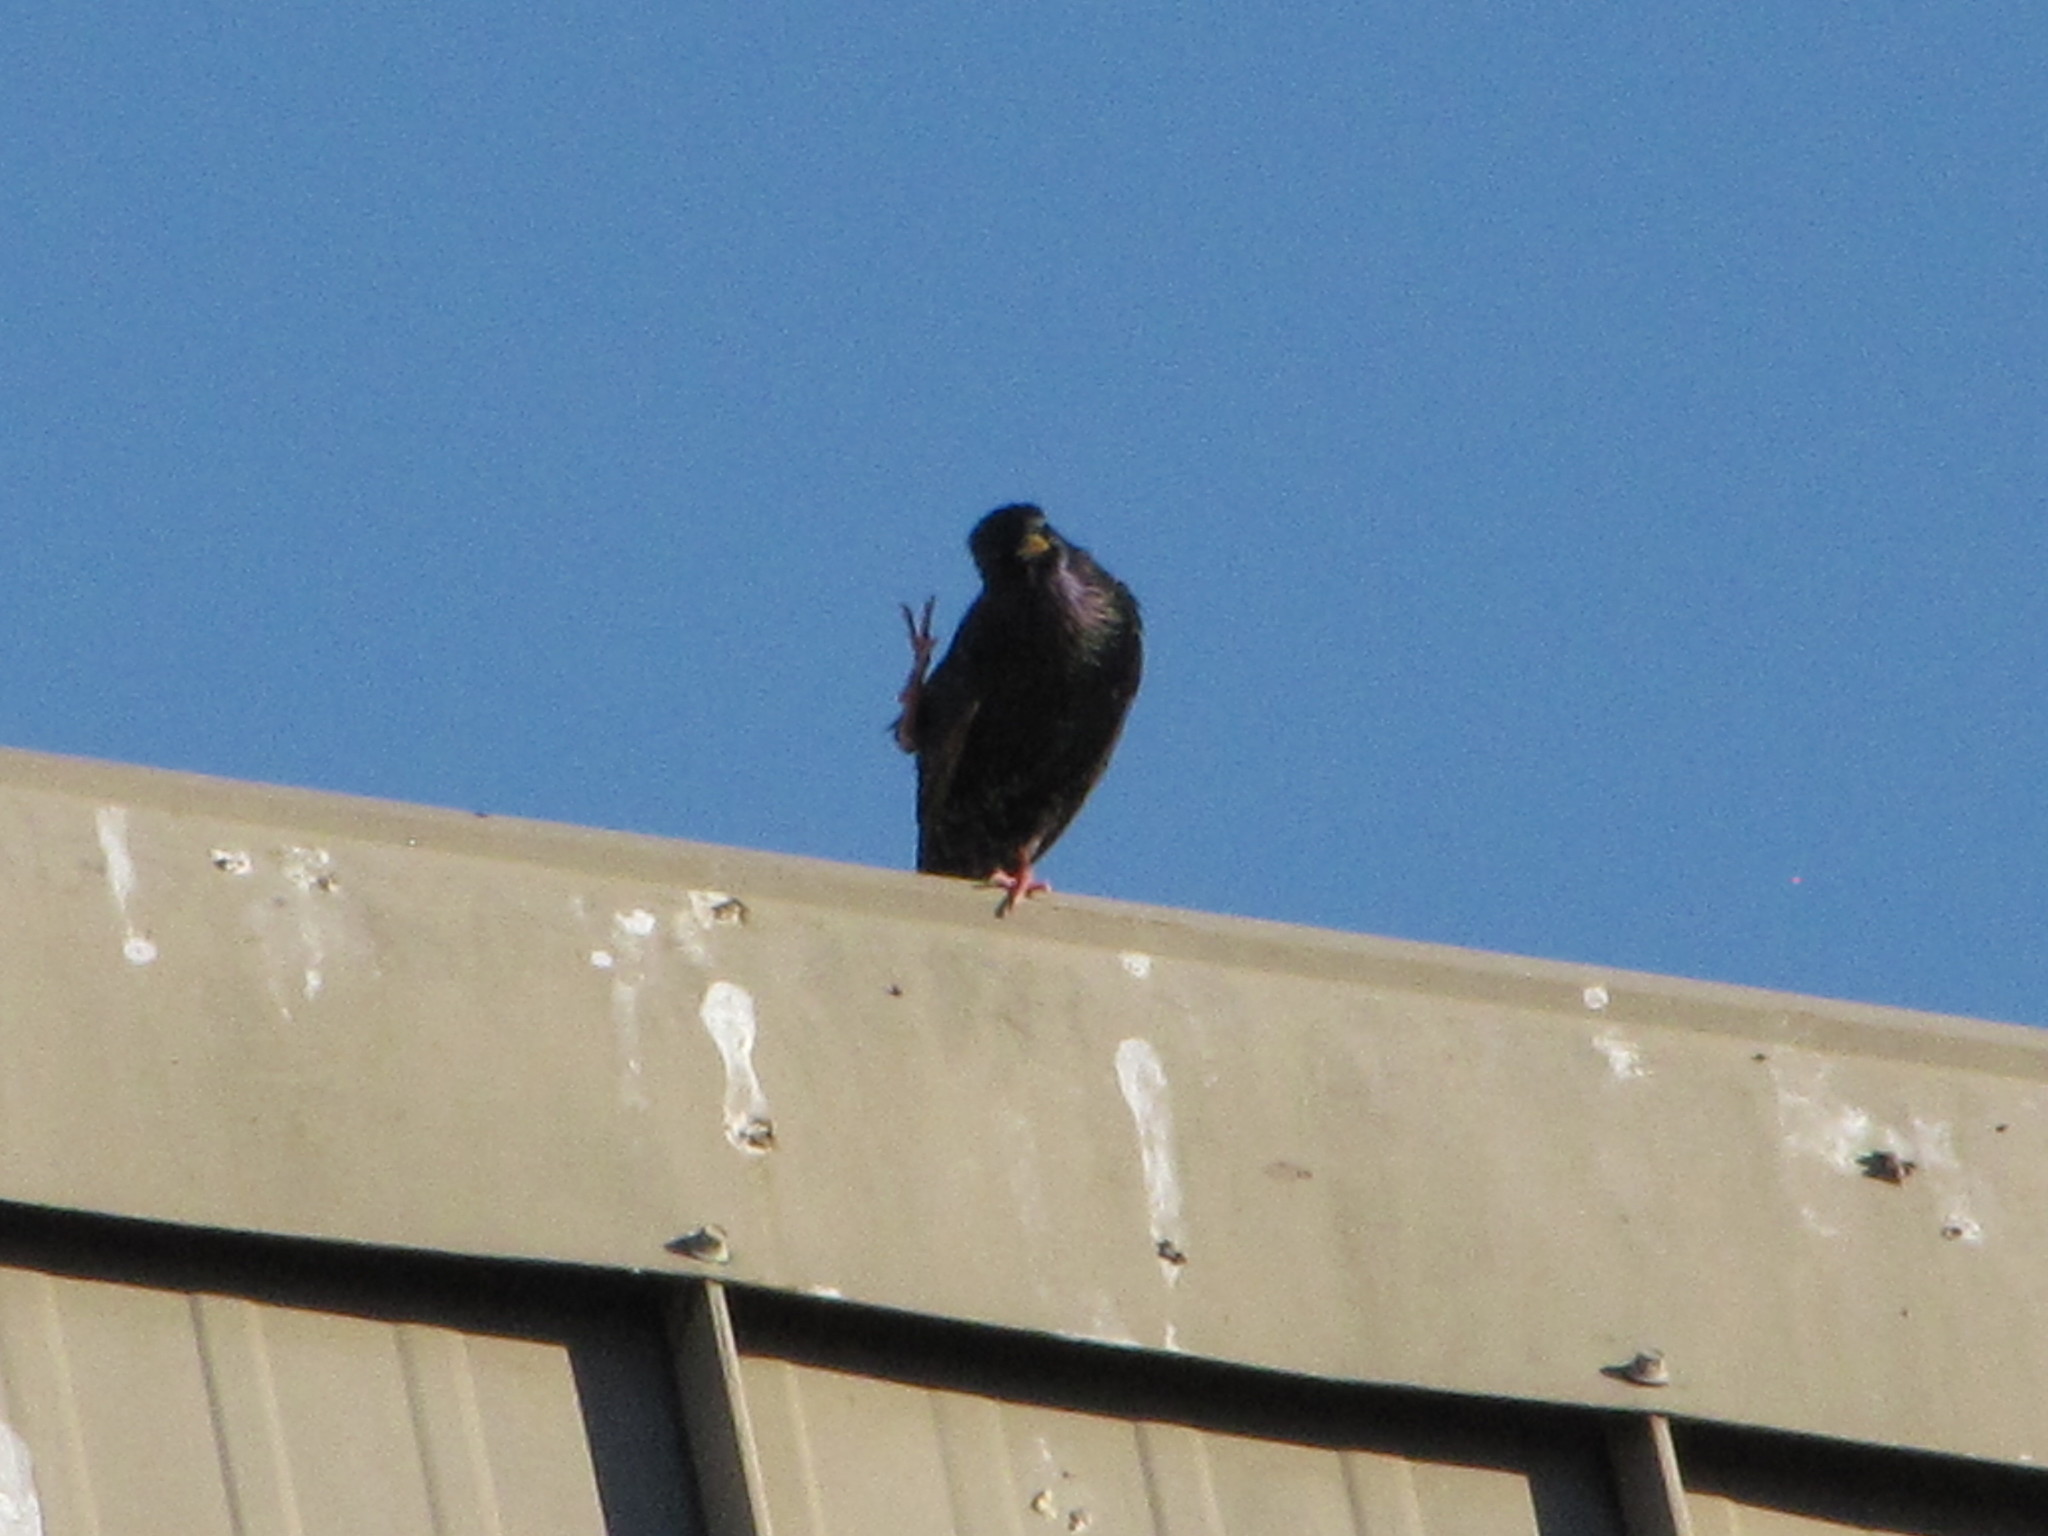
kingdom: Animalia
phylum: Chordata
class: Aves
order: Passeriformes
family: Sturnidae
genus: Sturnus
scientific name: Sturnus vulgaris
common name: Common starling
